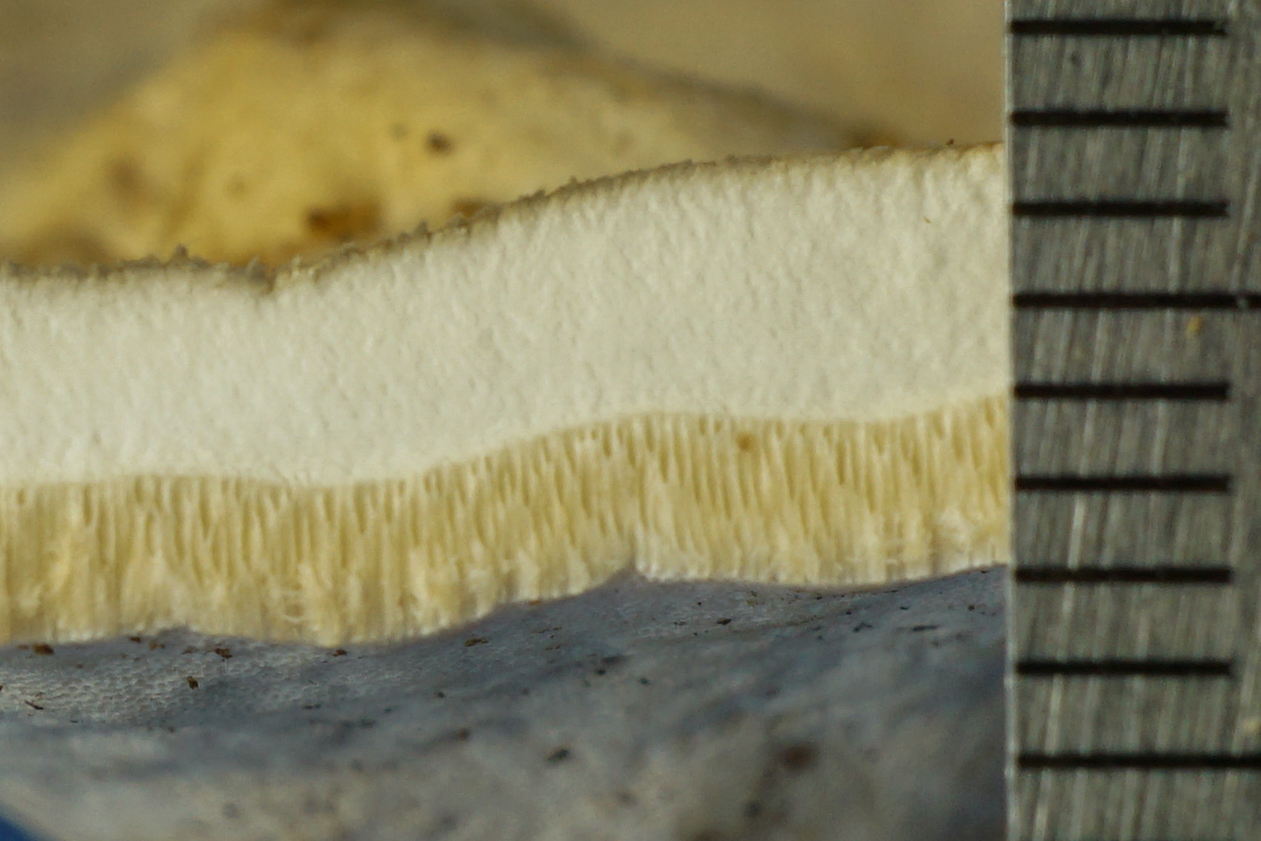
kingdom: Fungi
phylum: Basidiomycota
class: Agaricomycetes
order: Polyporales
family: Polyporaceae
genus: Microporellus
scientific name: Microporellus dealbatus
